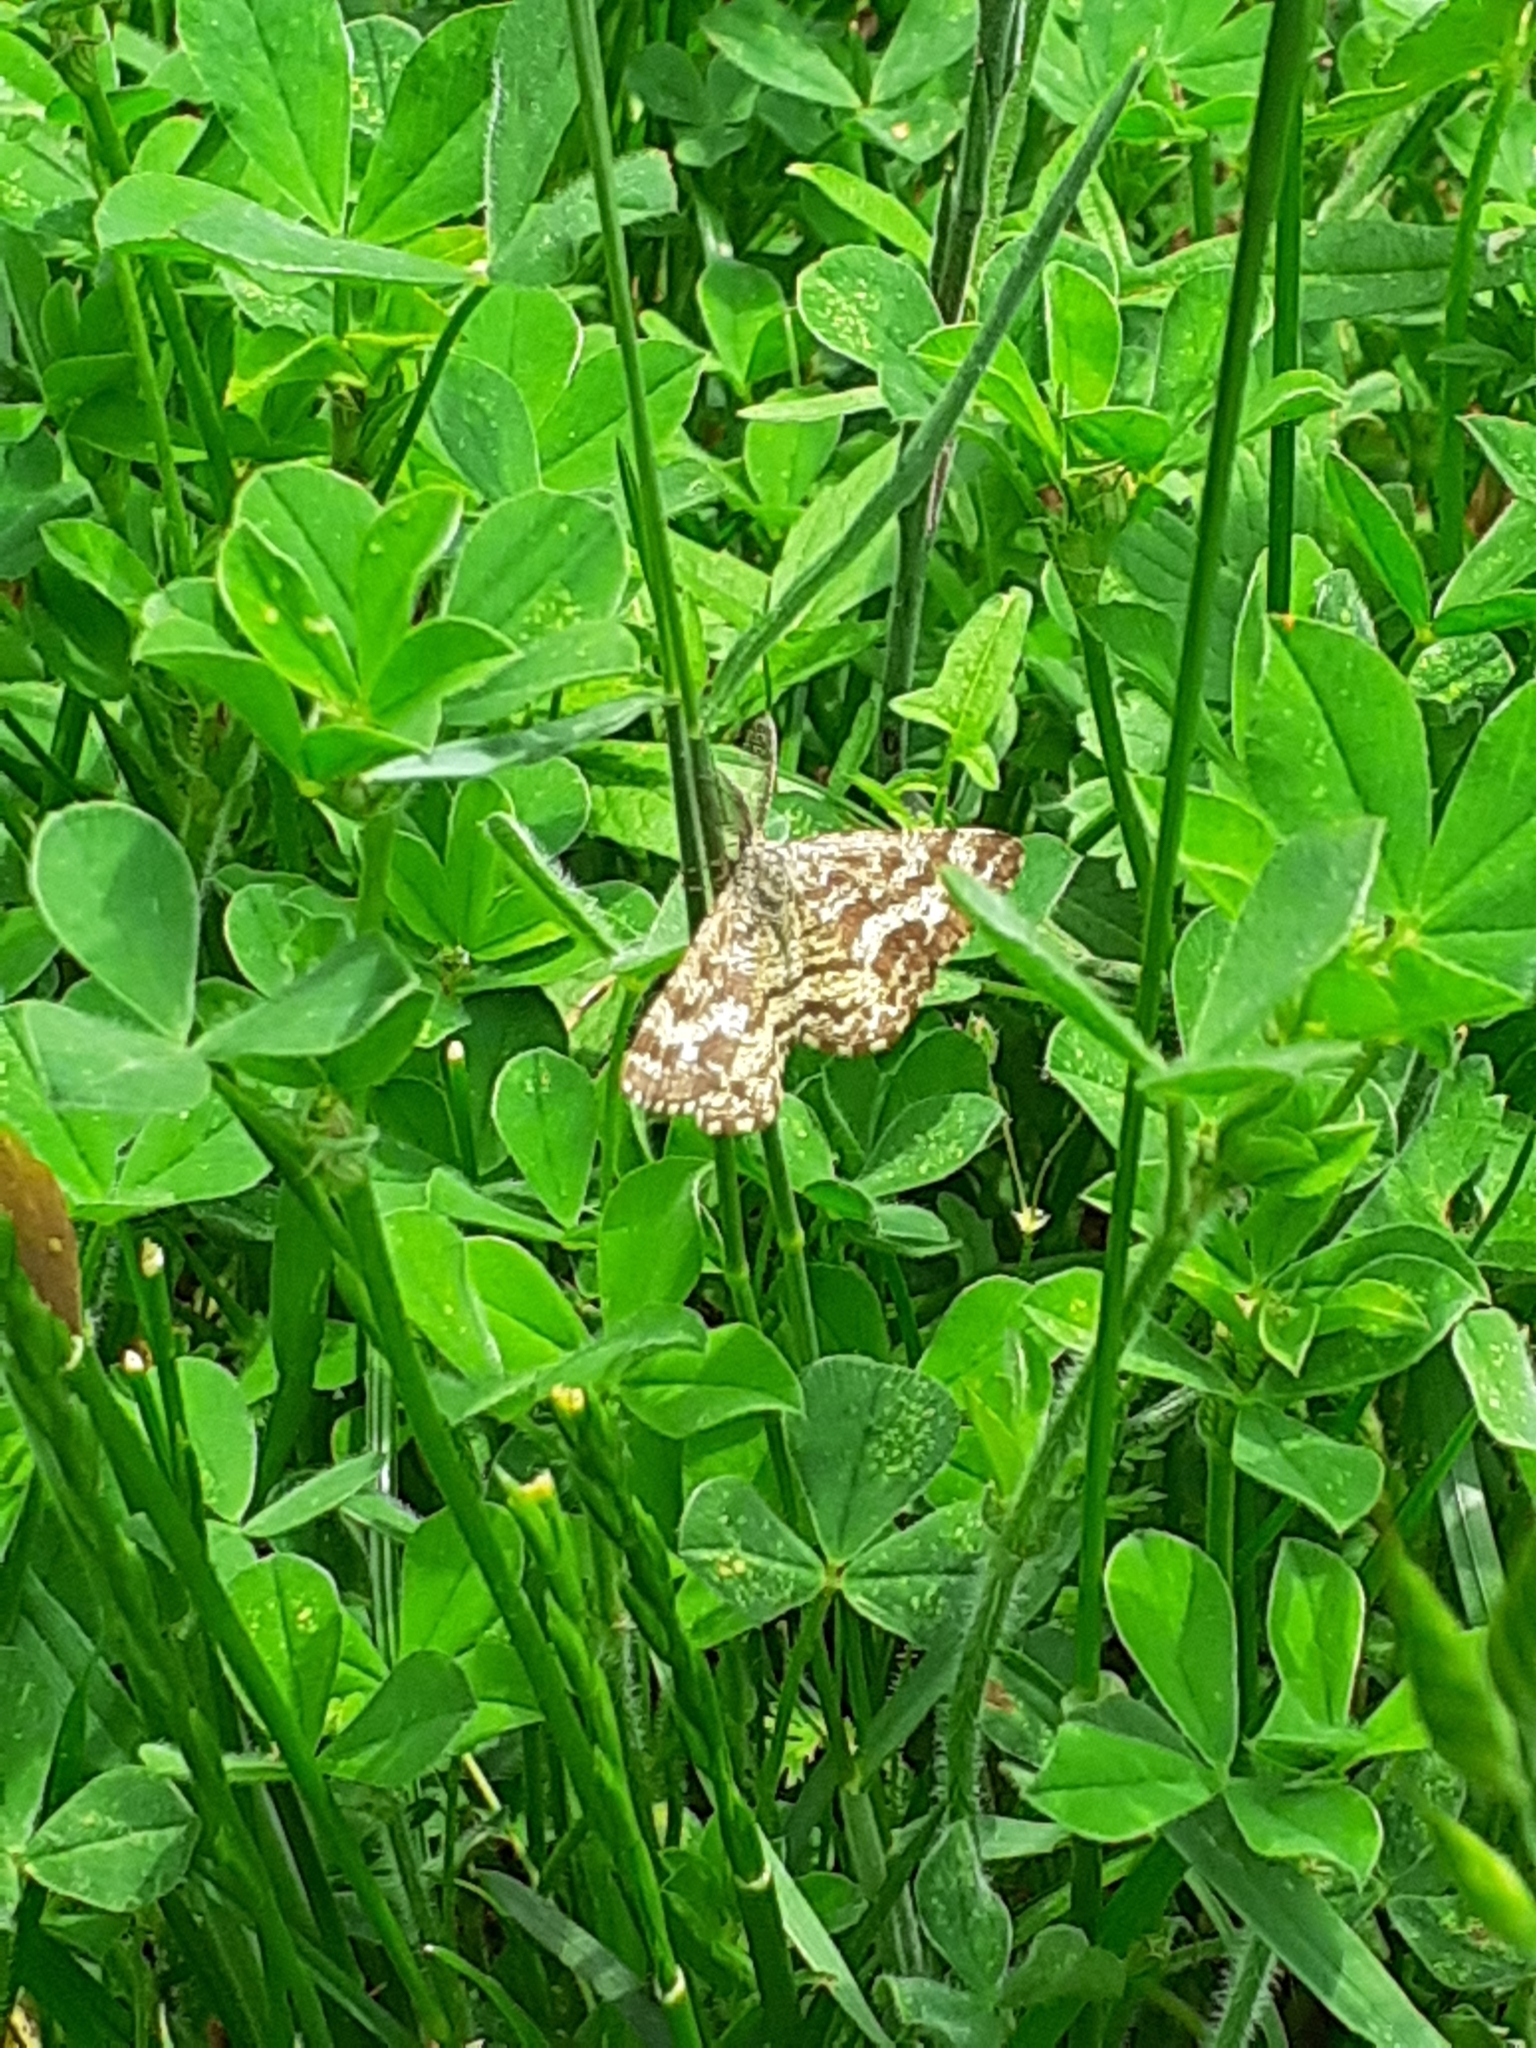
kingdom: Animalia
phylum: Arthropoda
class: Insecta
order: Lepidoptera
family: Geometridae
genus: Ematurga
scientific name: Ematurga atomaria
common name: Common heath
